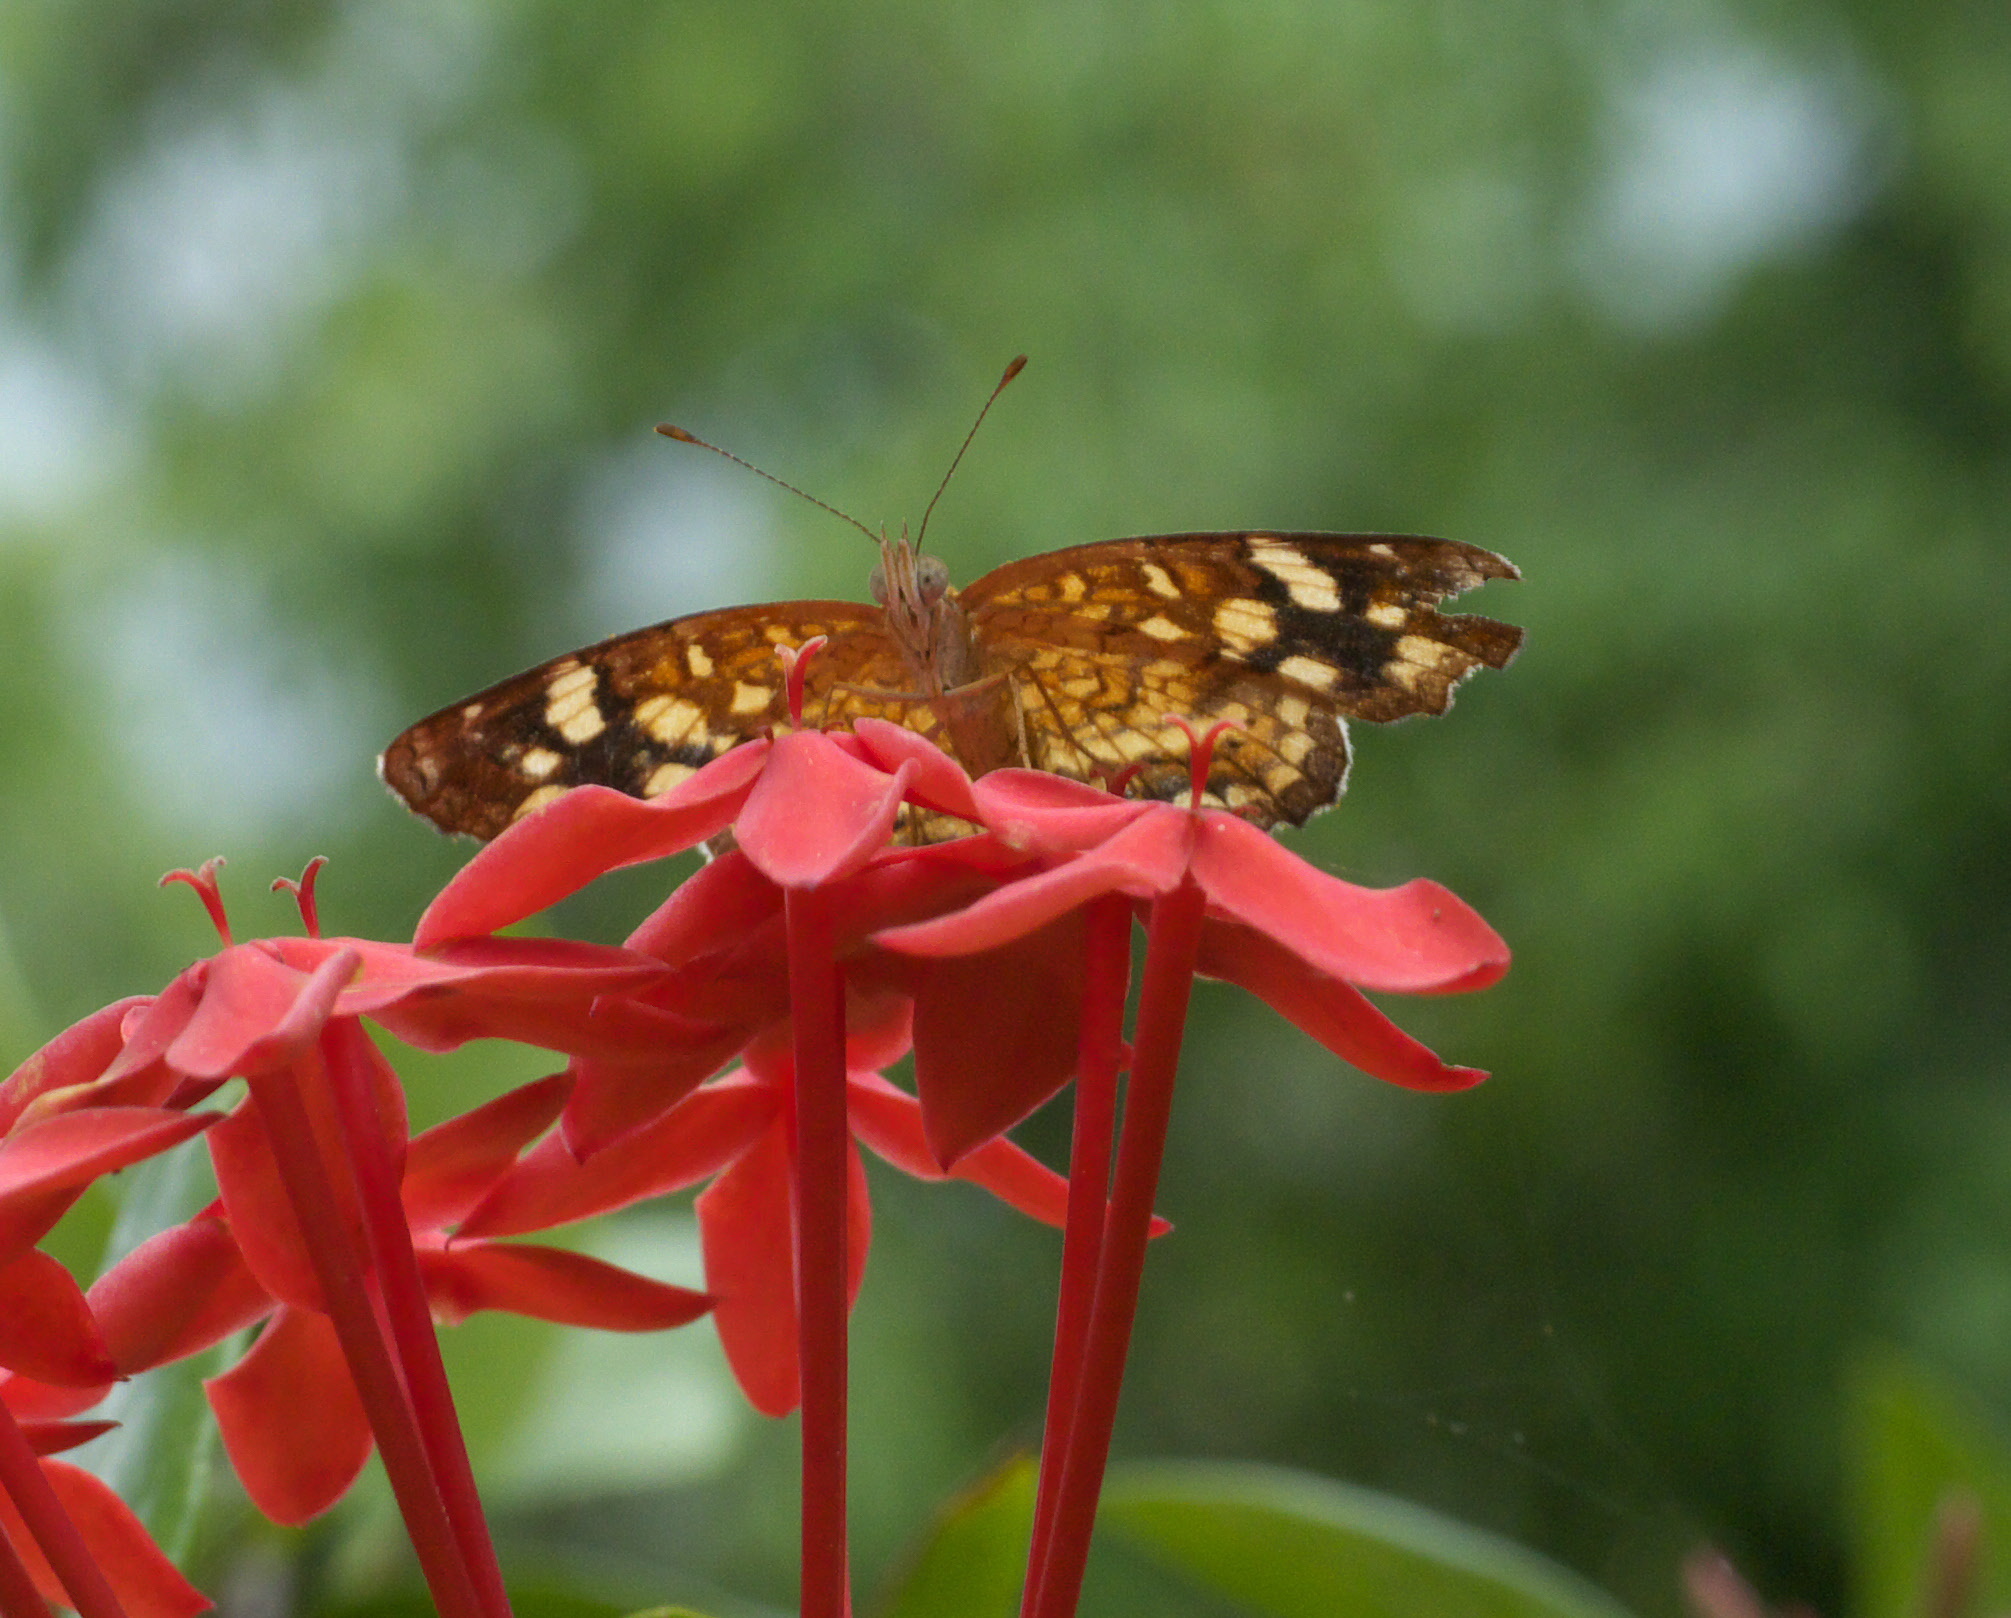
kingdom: Animalia
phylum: Arthropoda
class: Insecta
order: Lepidoptera
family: Nymphalidae
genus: Anthanassa
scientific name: Anthanassa frisia
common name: Cuban crescent
